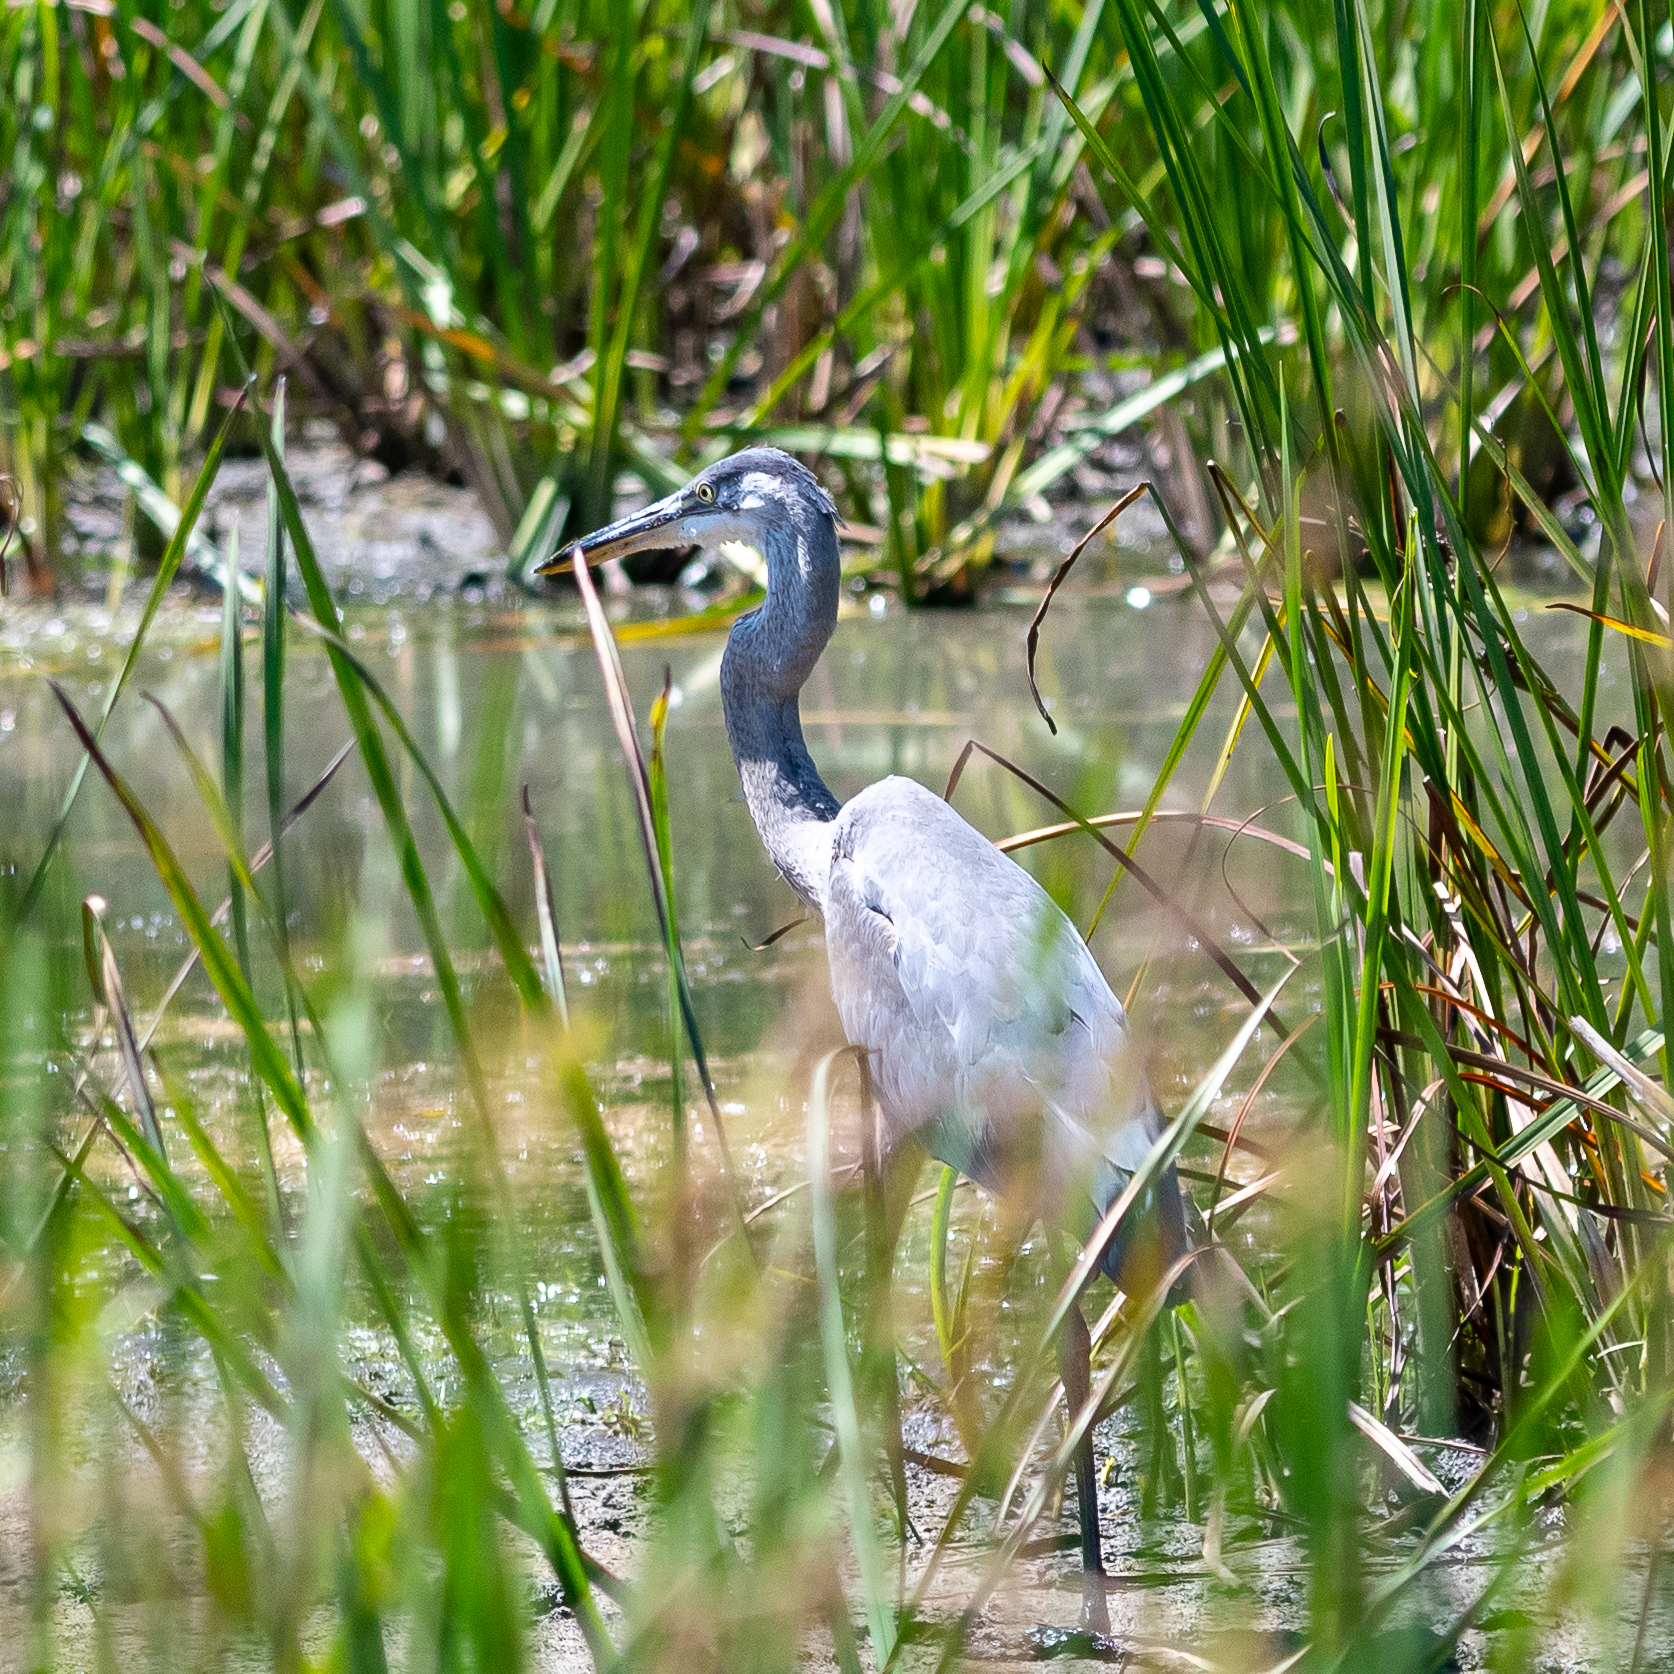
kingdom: Animalia
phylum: Chordata
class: Aves
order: Pelecaniformes
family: Ardeidae
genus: Ardea
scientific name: Ardea herodias
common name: Great blue heron
